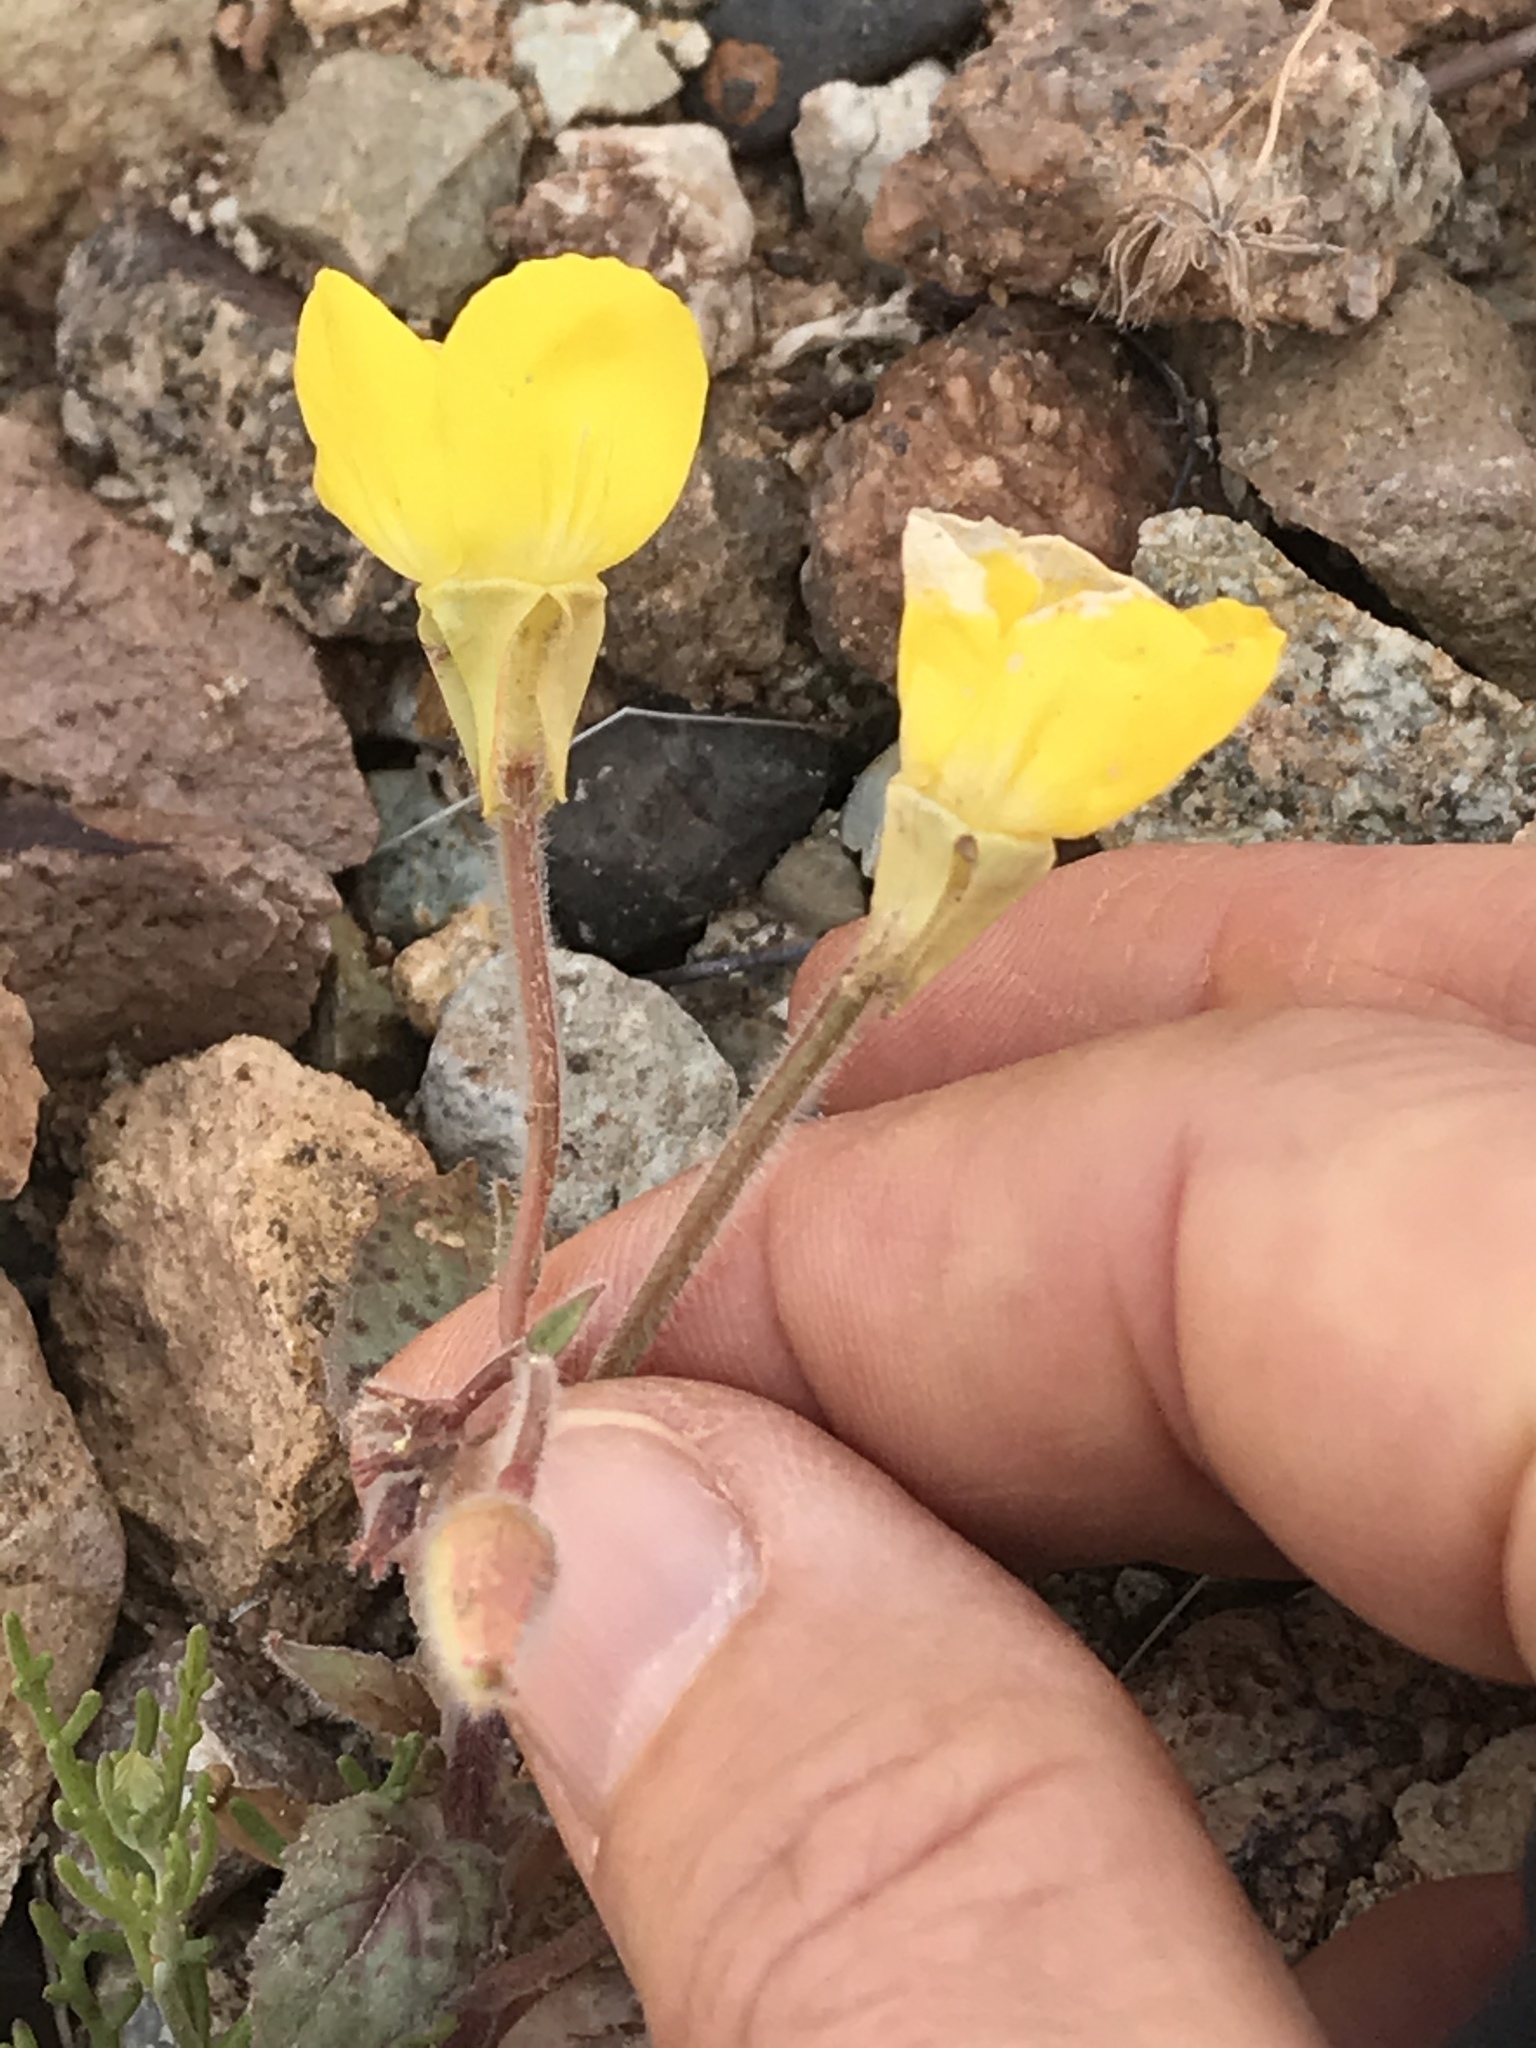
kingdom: Plantae
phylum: Tracheophyta
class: Magnoliopsida
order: Myrtales
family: Onagraceae
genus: Chylismia
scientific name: Chylismia brevipes
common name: Yellow cups
